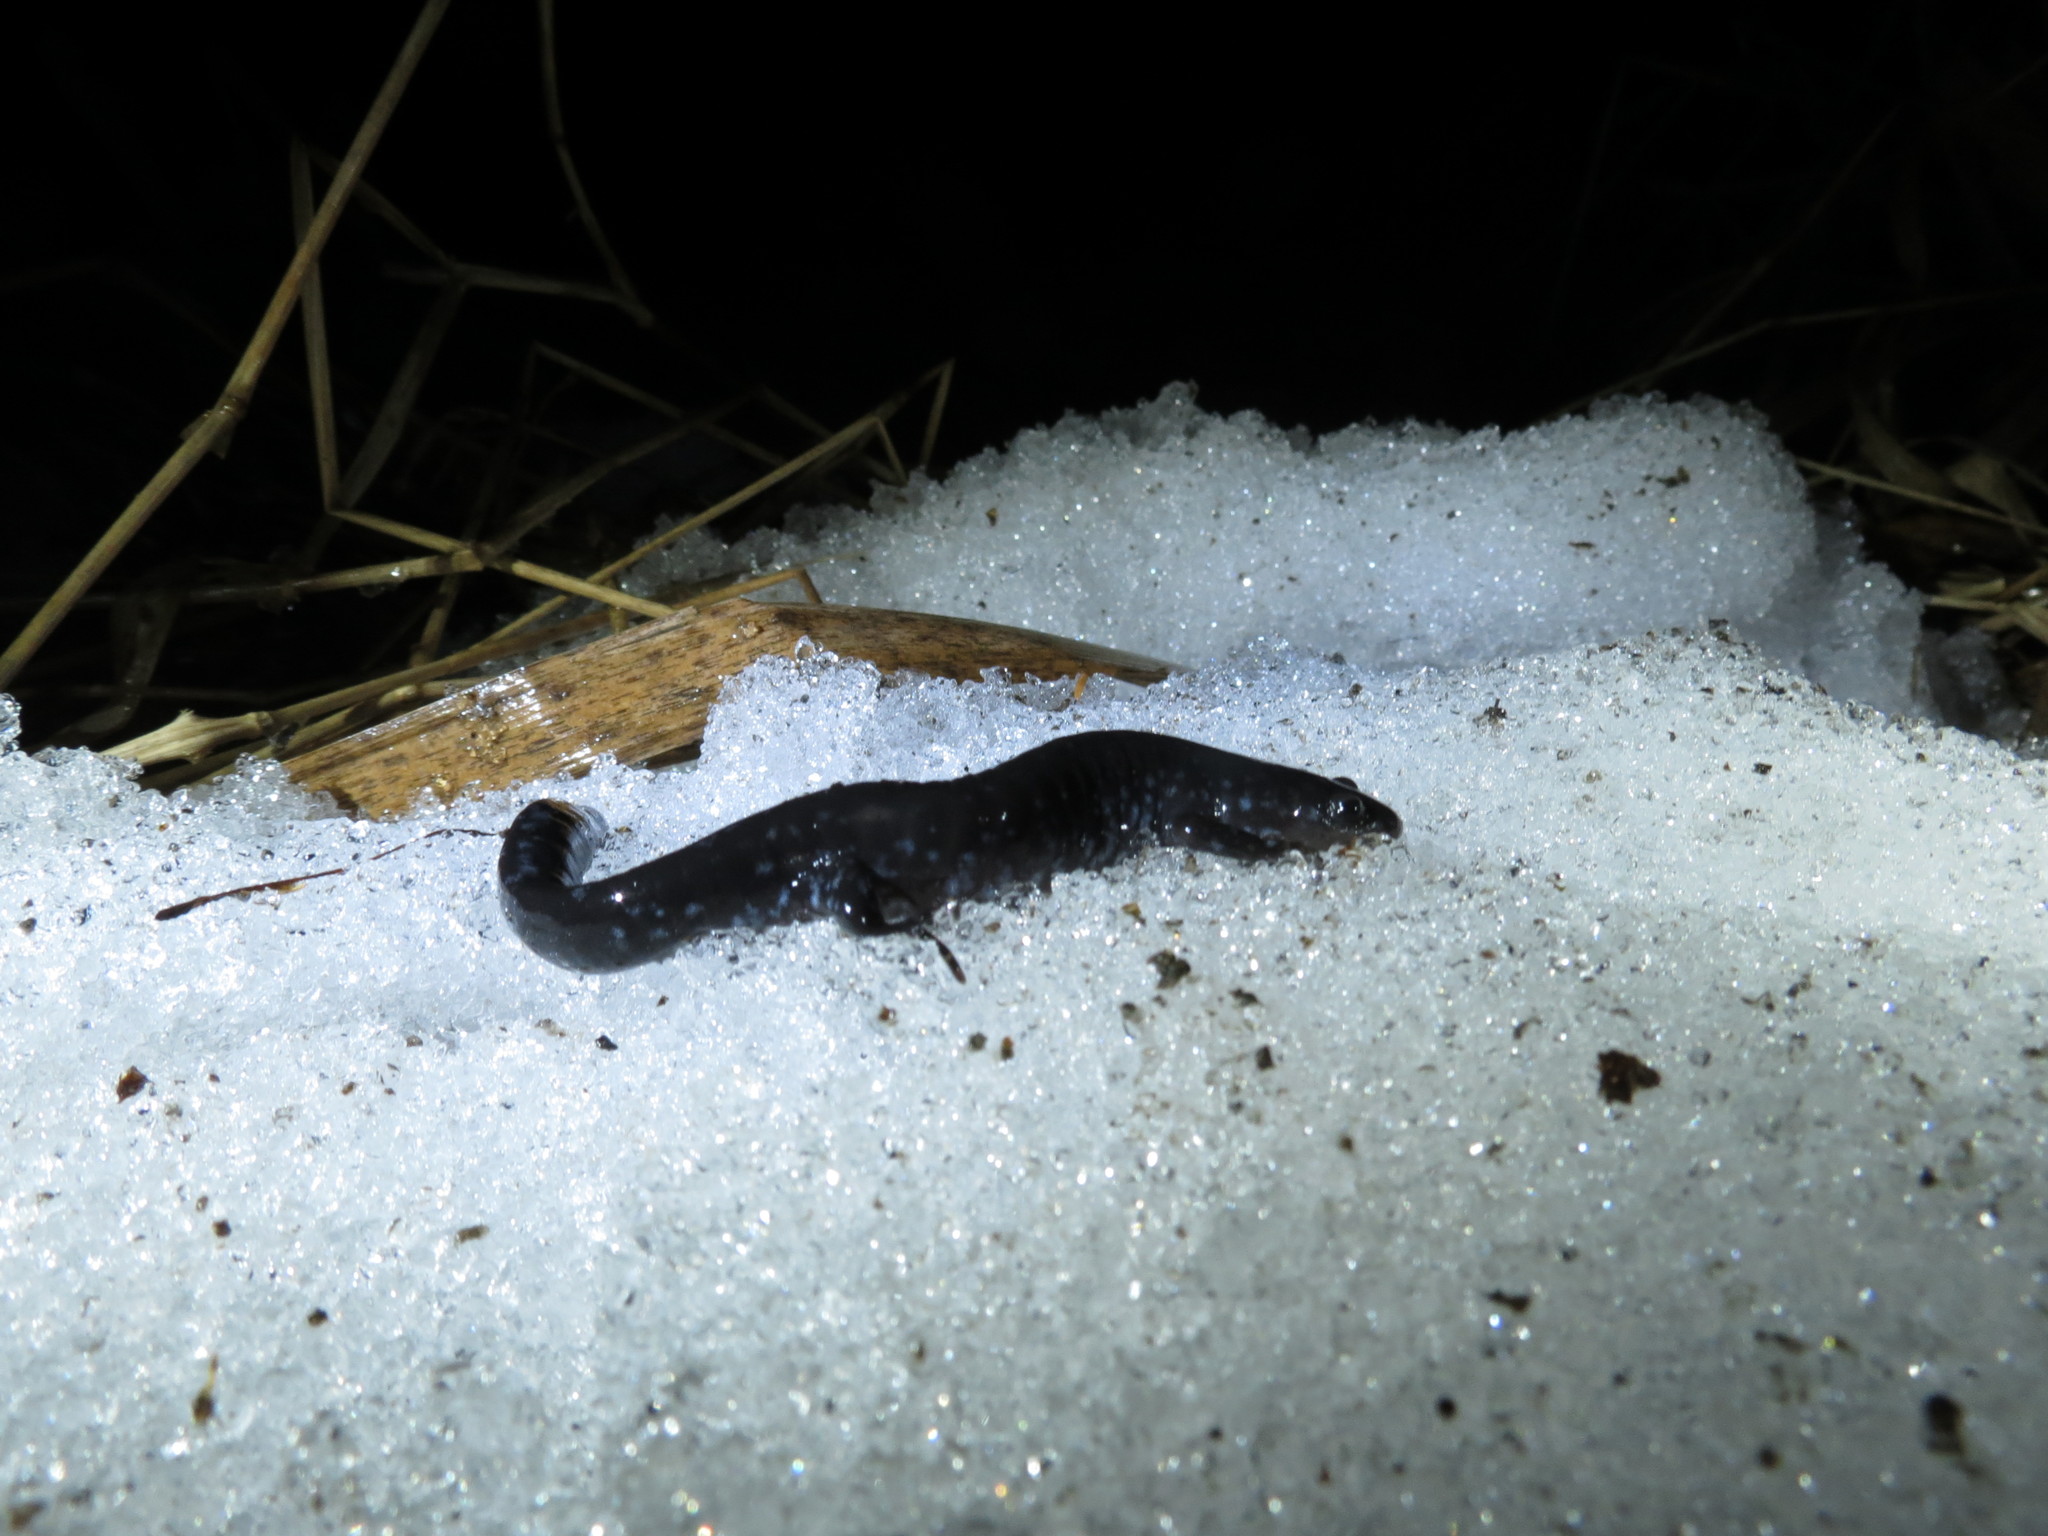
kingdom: Animalia
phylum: Chordata
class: Amphibia
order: Caudata
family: Ambystomatidae
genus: Ambystoma
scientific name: Ambystoma laterale
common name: Blue-spotted salamander
